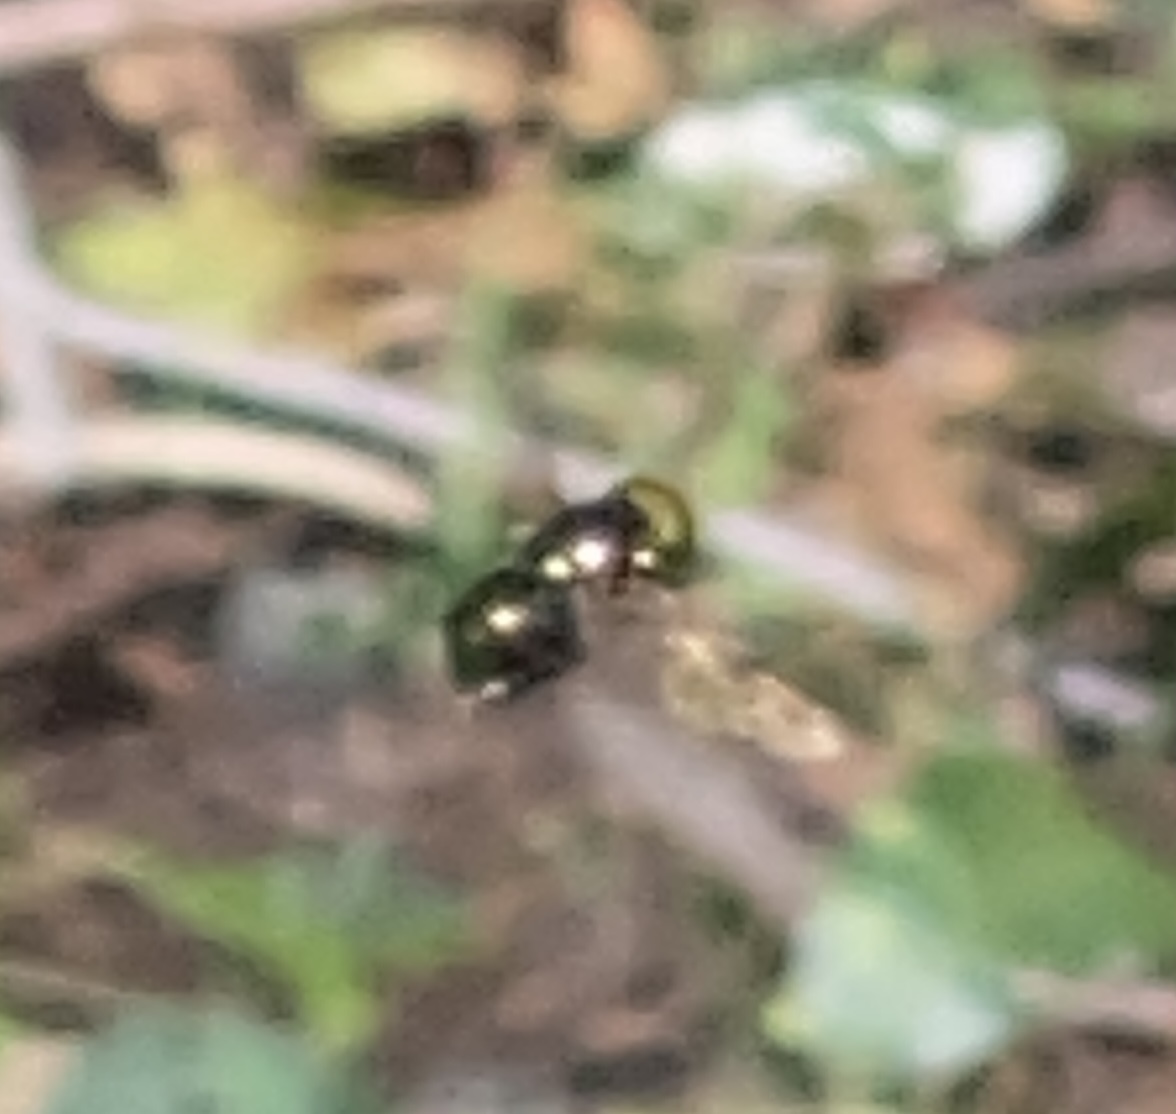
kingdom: Animalia
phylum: Arthropoda
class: Insecta
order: Diptera
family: Syrphidae
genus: Ornidia
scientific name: Ornidia obesa
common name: Syrphid fly
